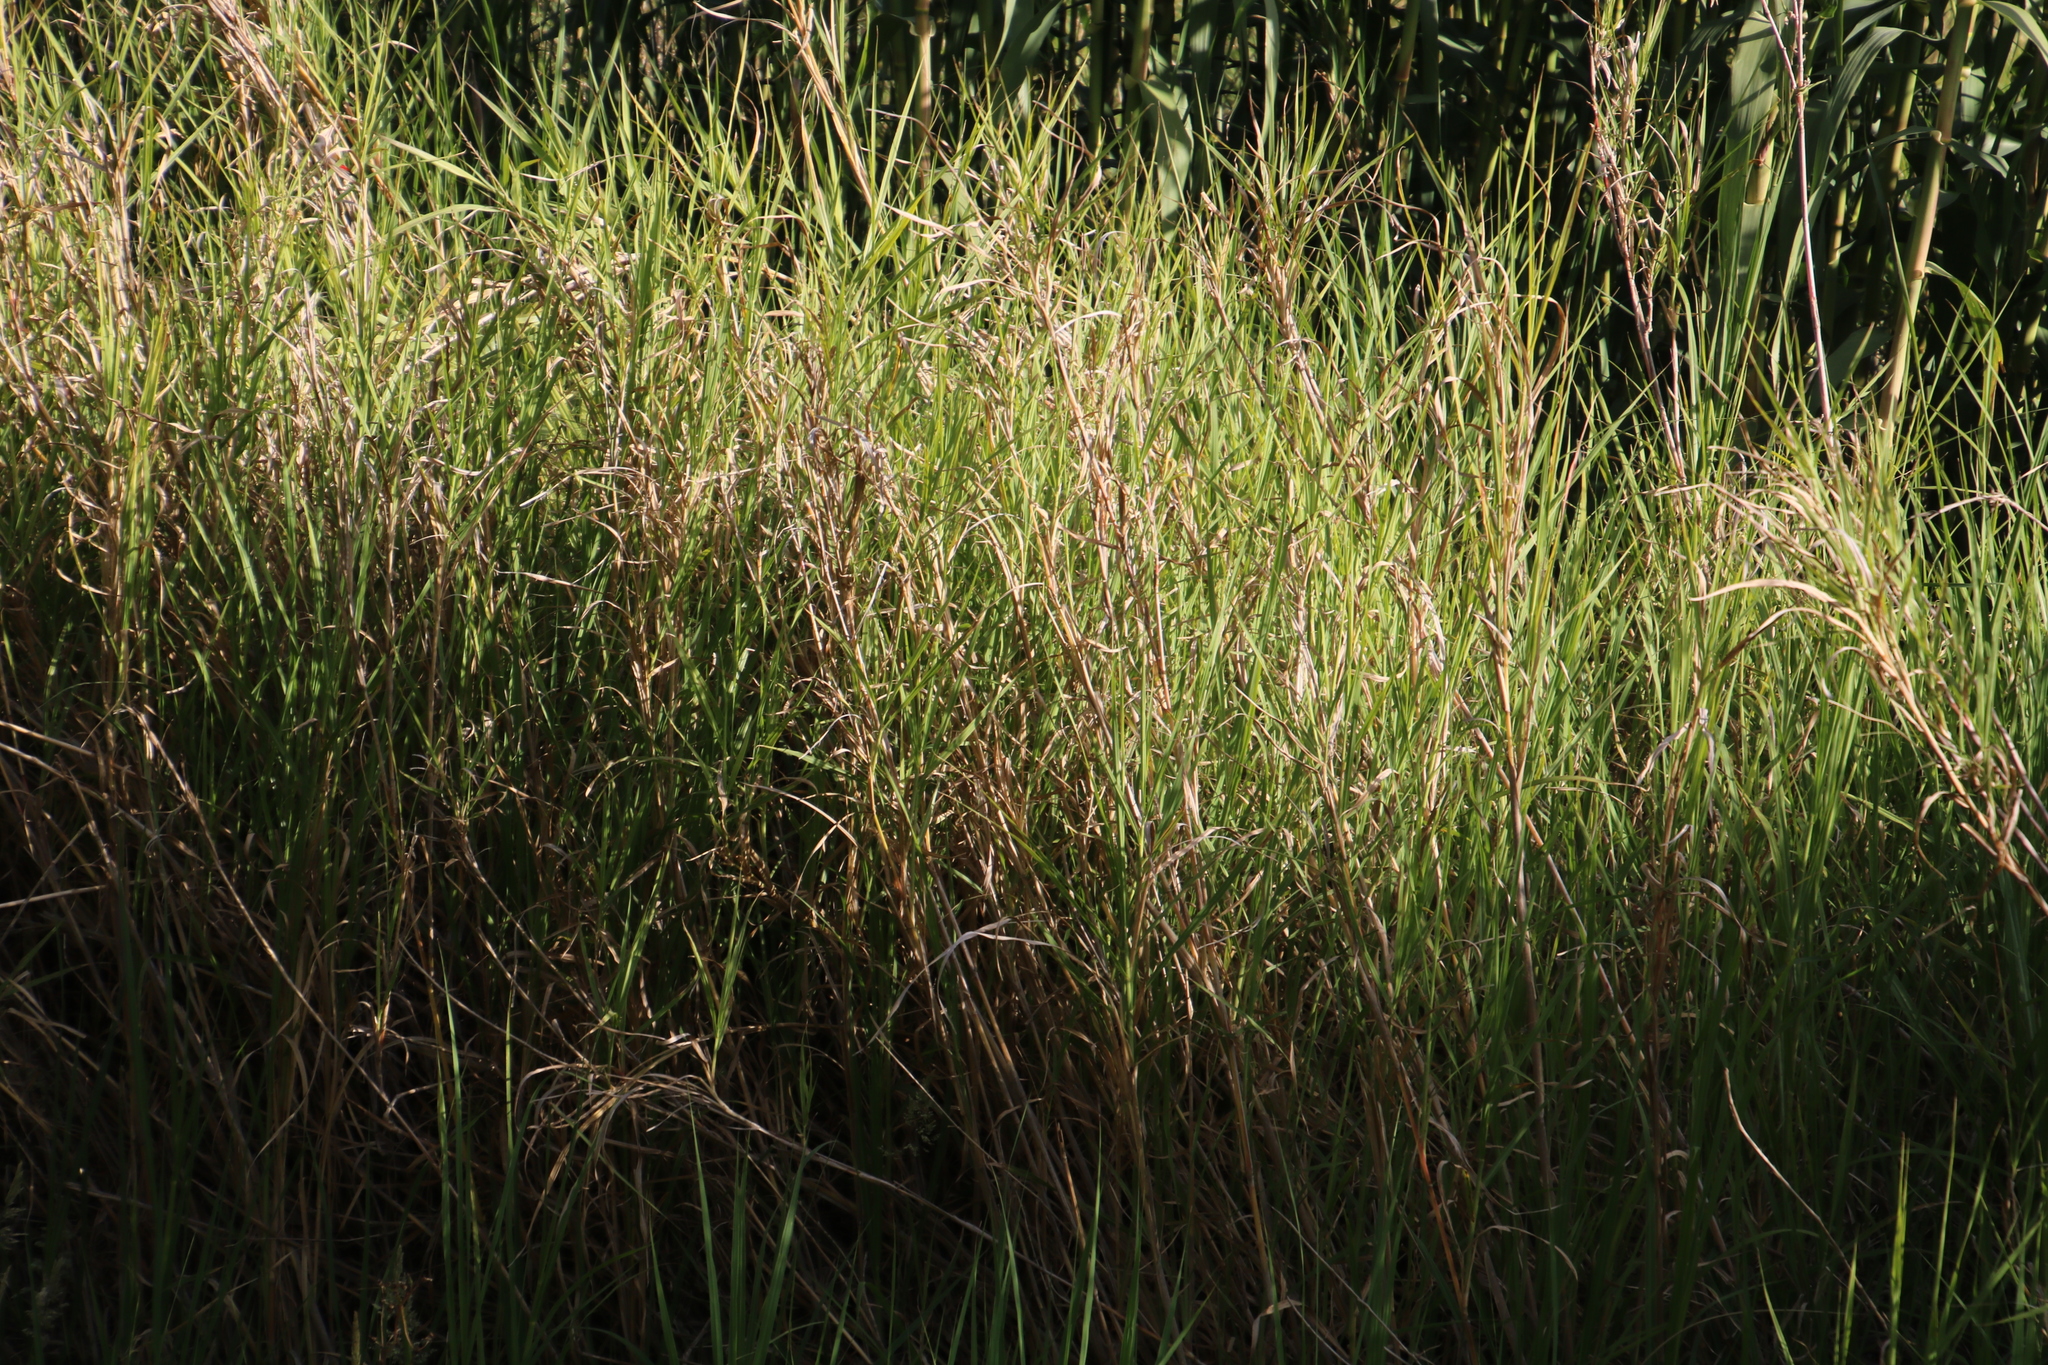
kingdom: Plantae
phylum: Tracheophyta
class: Liliopsida
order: Poales
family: Poaceae
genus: Echinochloa
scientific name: Echinochloa pyramidalis
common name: Antelope grass
